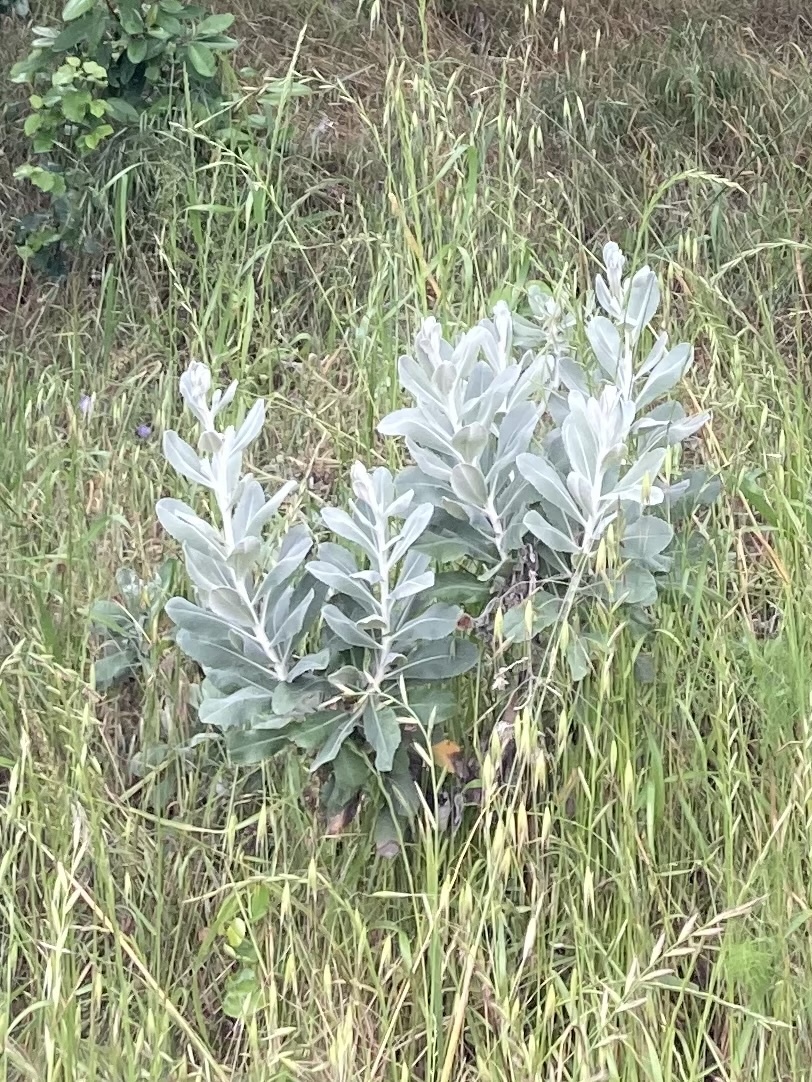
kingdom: Plantae
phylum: Tracheophyta
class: Magnoliopsida
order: Asterales
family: Asteraceae
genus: Hazardia
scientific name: Hazardia detonsa
